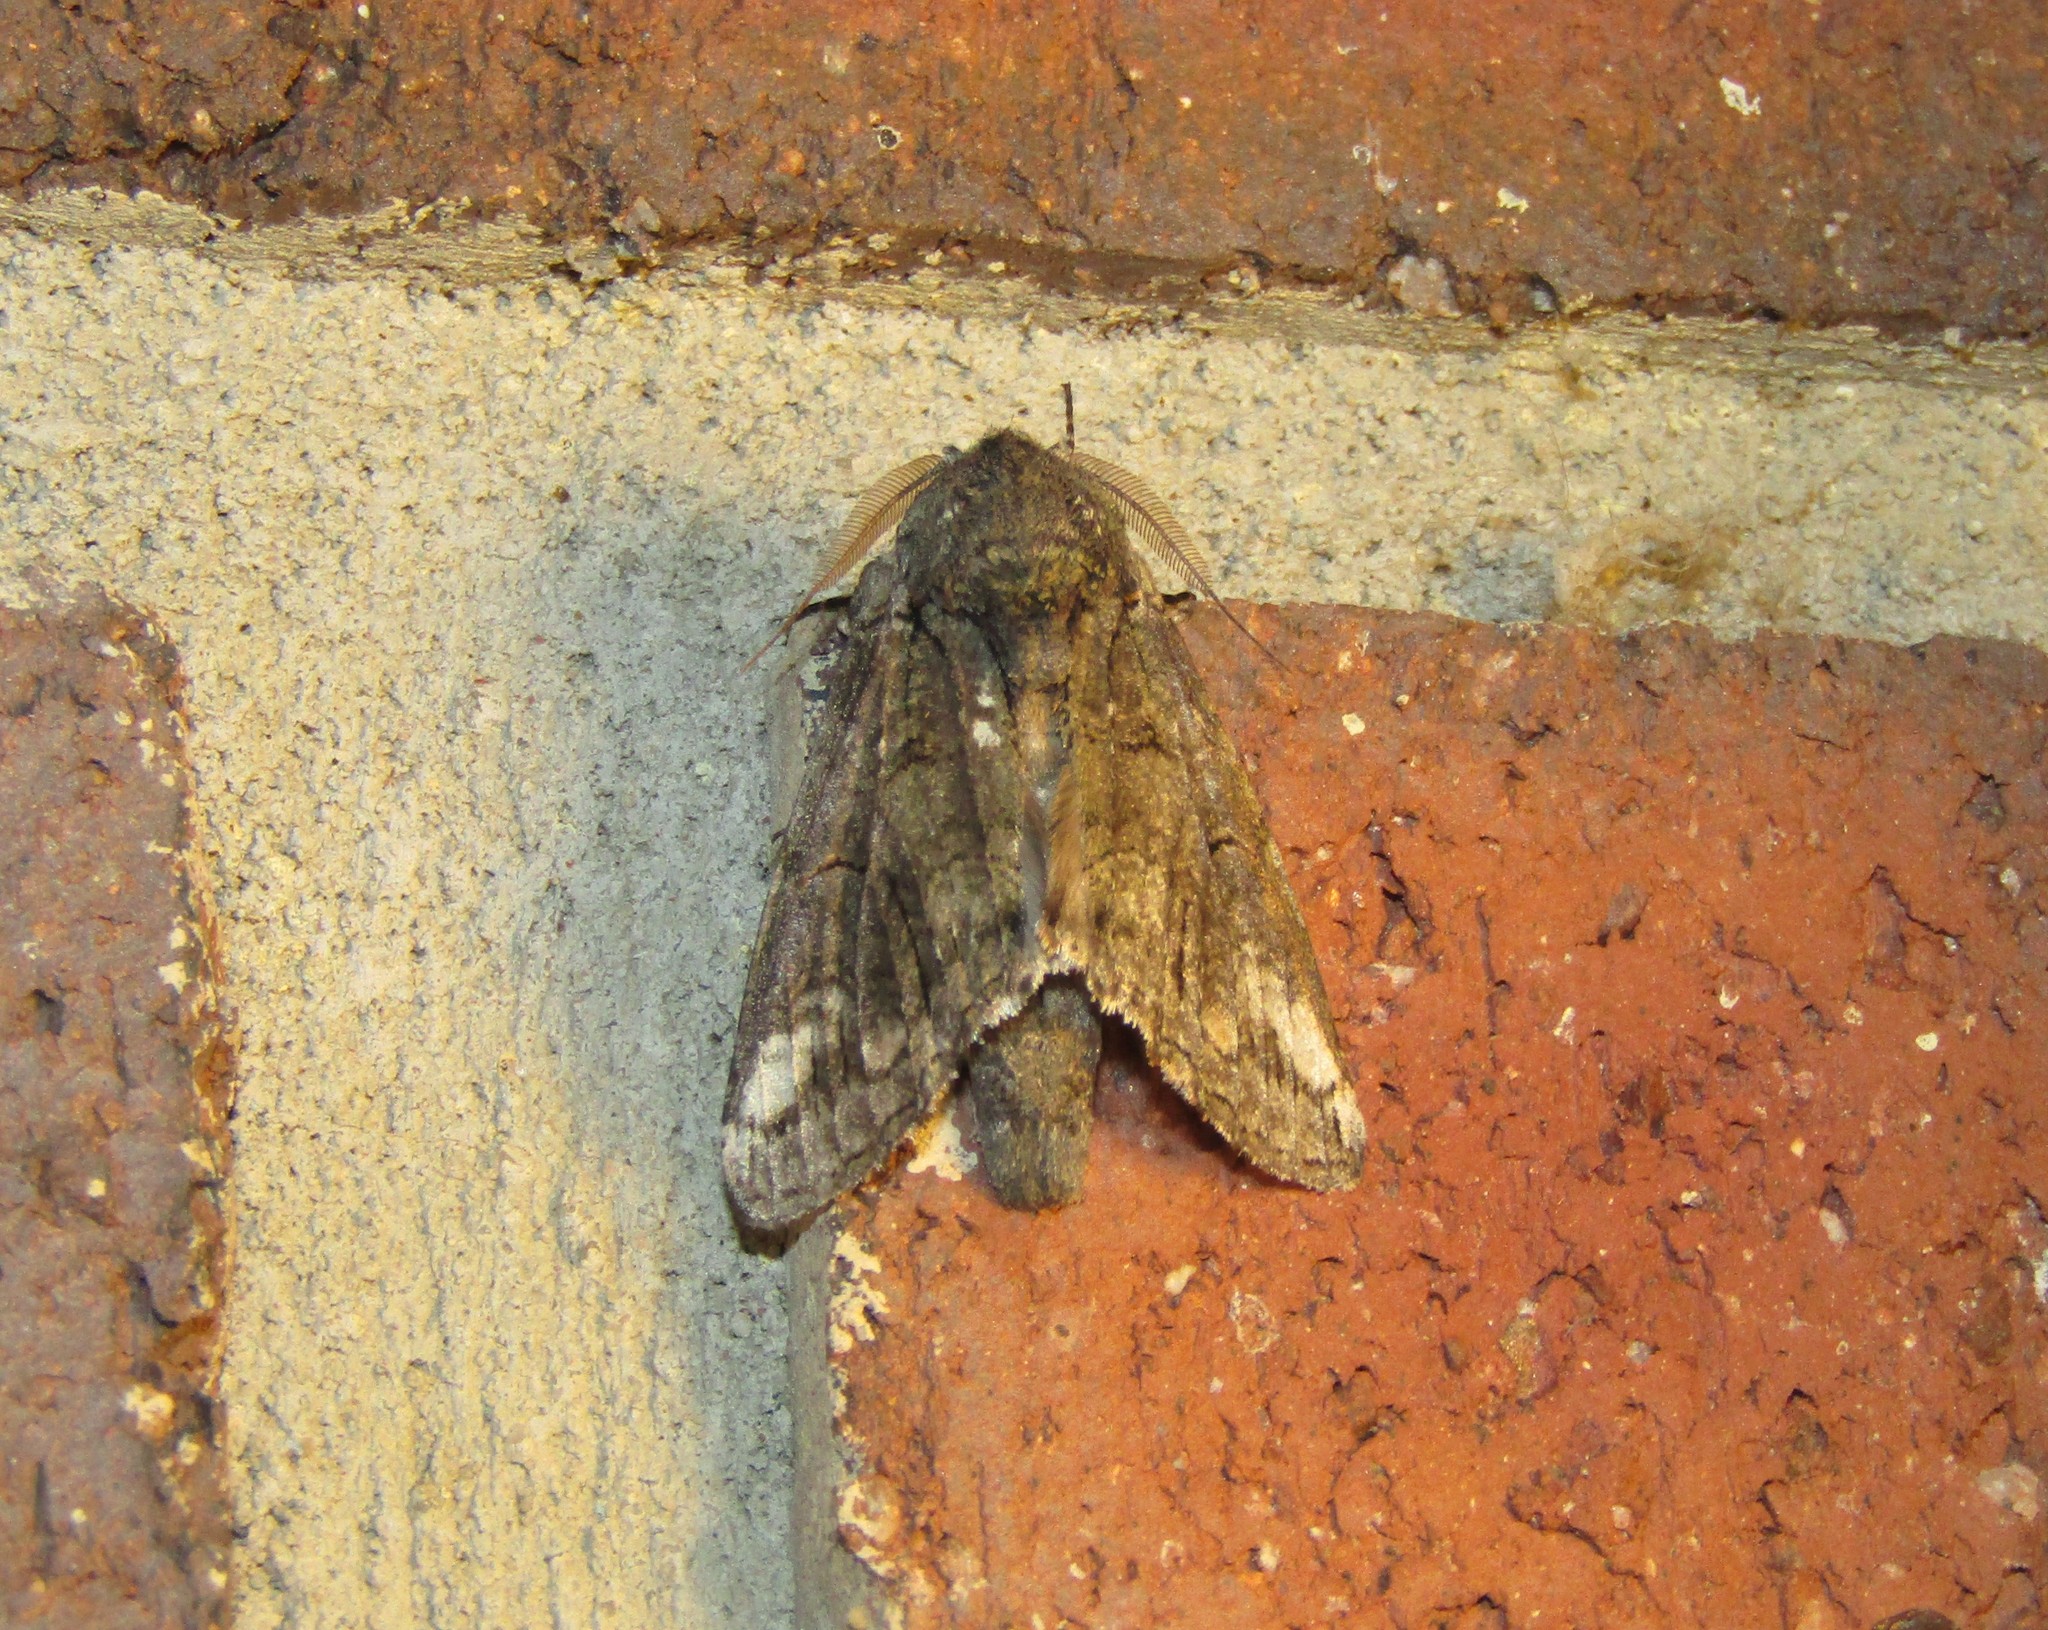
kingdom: Animalia
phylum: Arthropoda
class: Insecta
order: Lepidoptera
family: Notodontidae
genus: Heterocampa
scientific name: Heterocampa obliqua
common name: Oblique heterocampa
